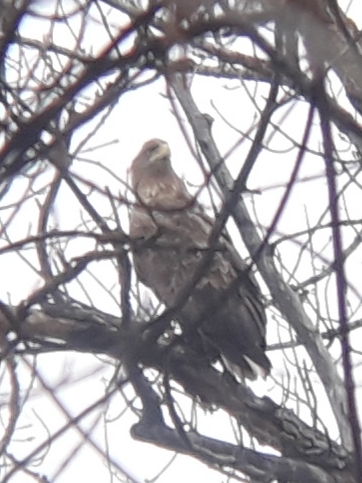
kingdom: Animalia
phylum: Chordata
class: Aves
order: Accipitriformes
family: Accipitridae
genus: Haliaeetus
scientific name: Haliaeetus albicilla
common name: White-tailed eagle
